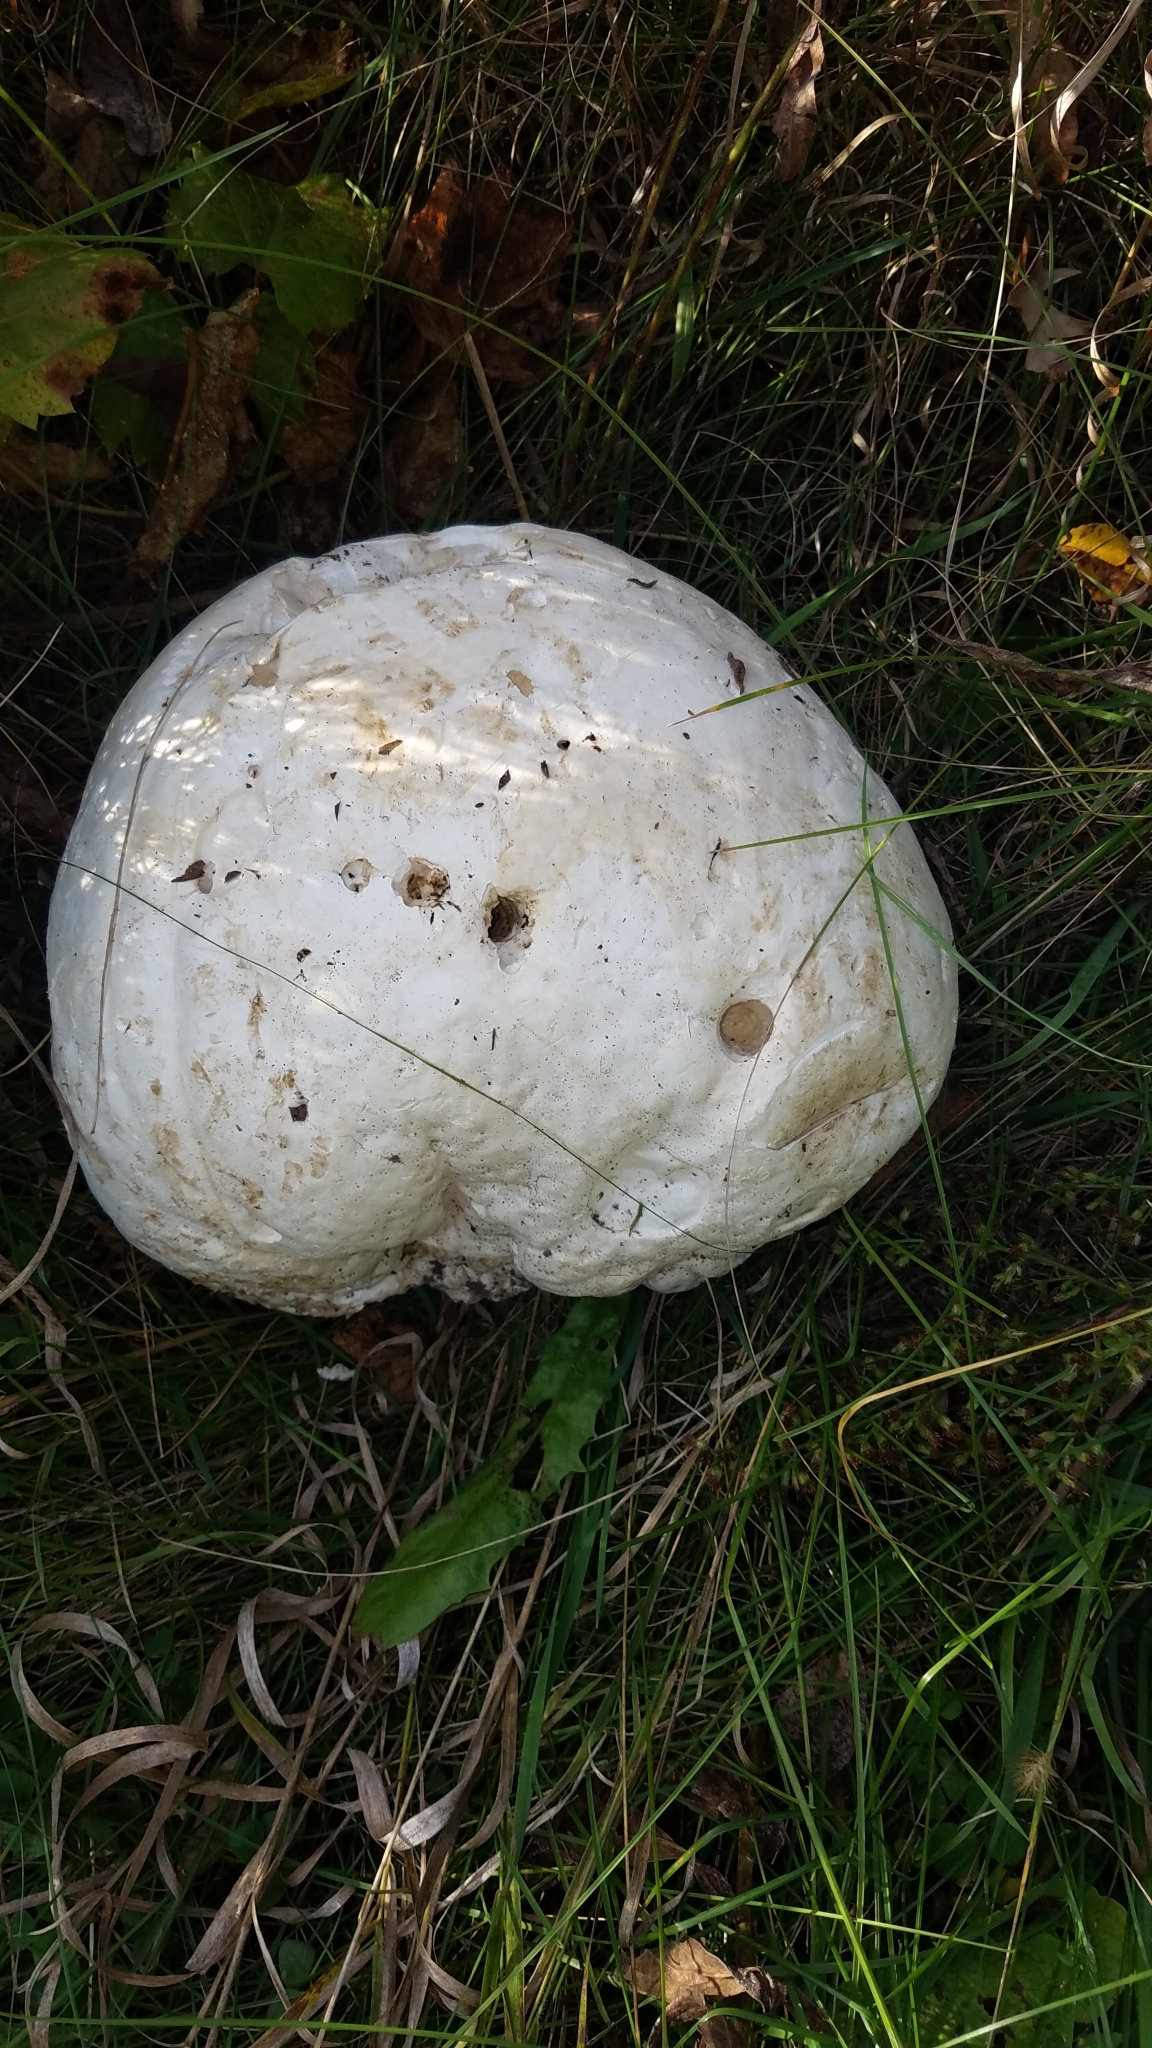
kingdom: Fungi
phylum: Basidiomycota
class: Agaricomycetes
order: Agaricales
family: Lycoperdaceae
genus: Calvatia
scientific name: Calvatia gigantea
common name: Giant puffball
